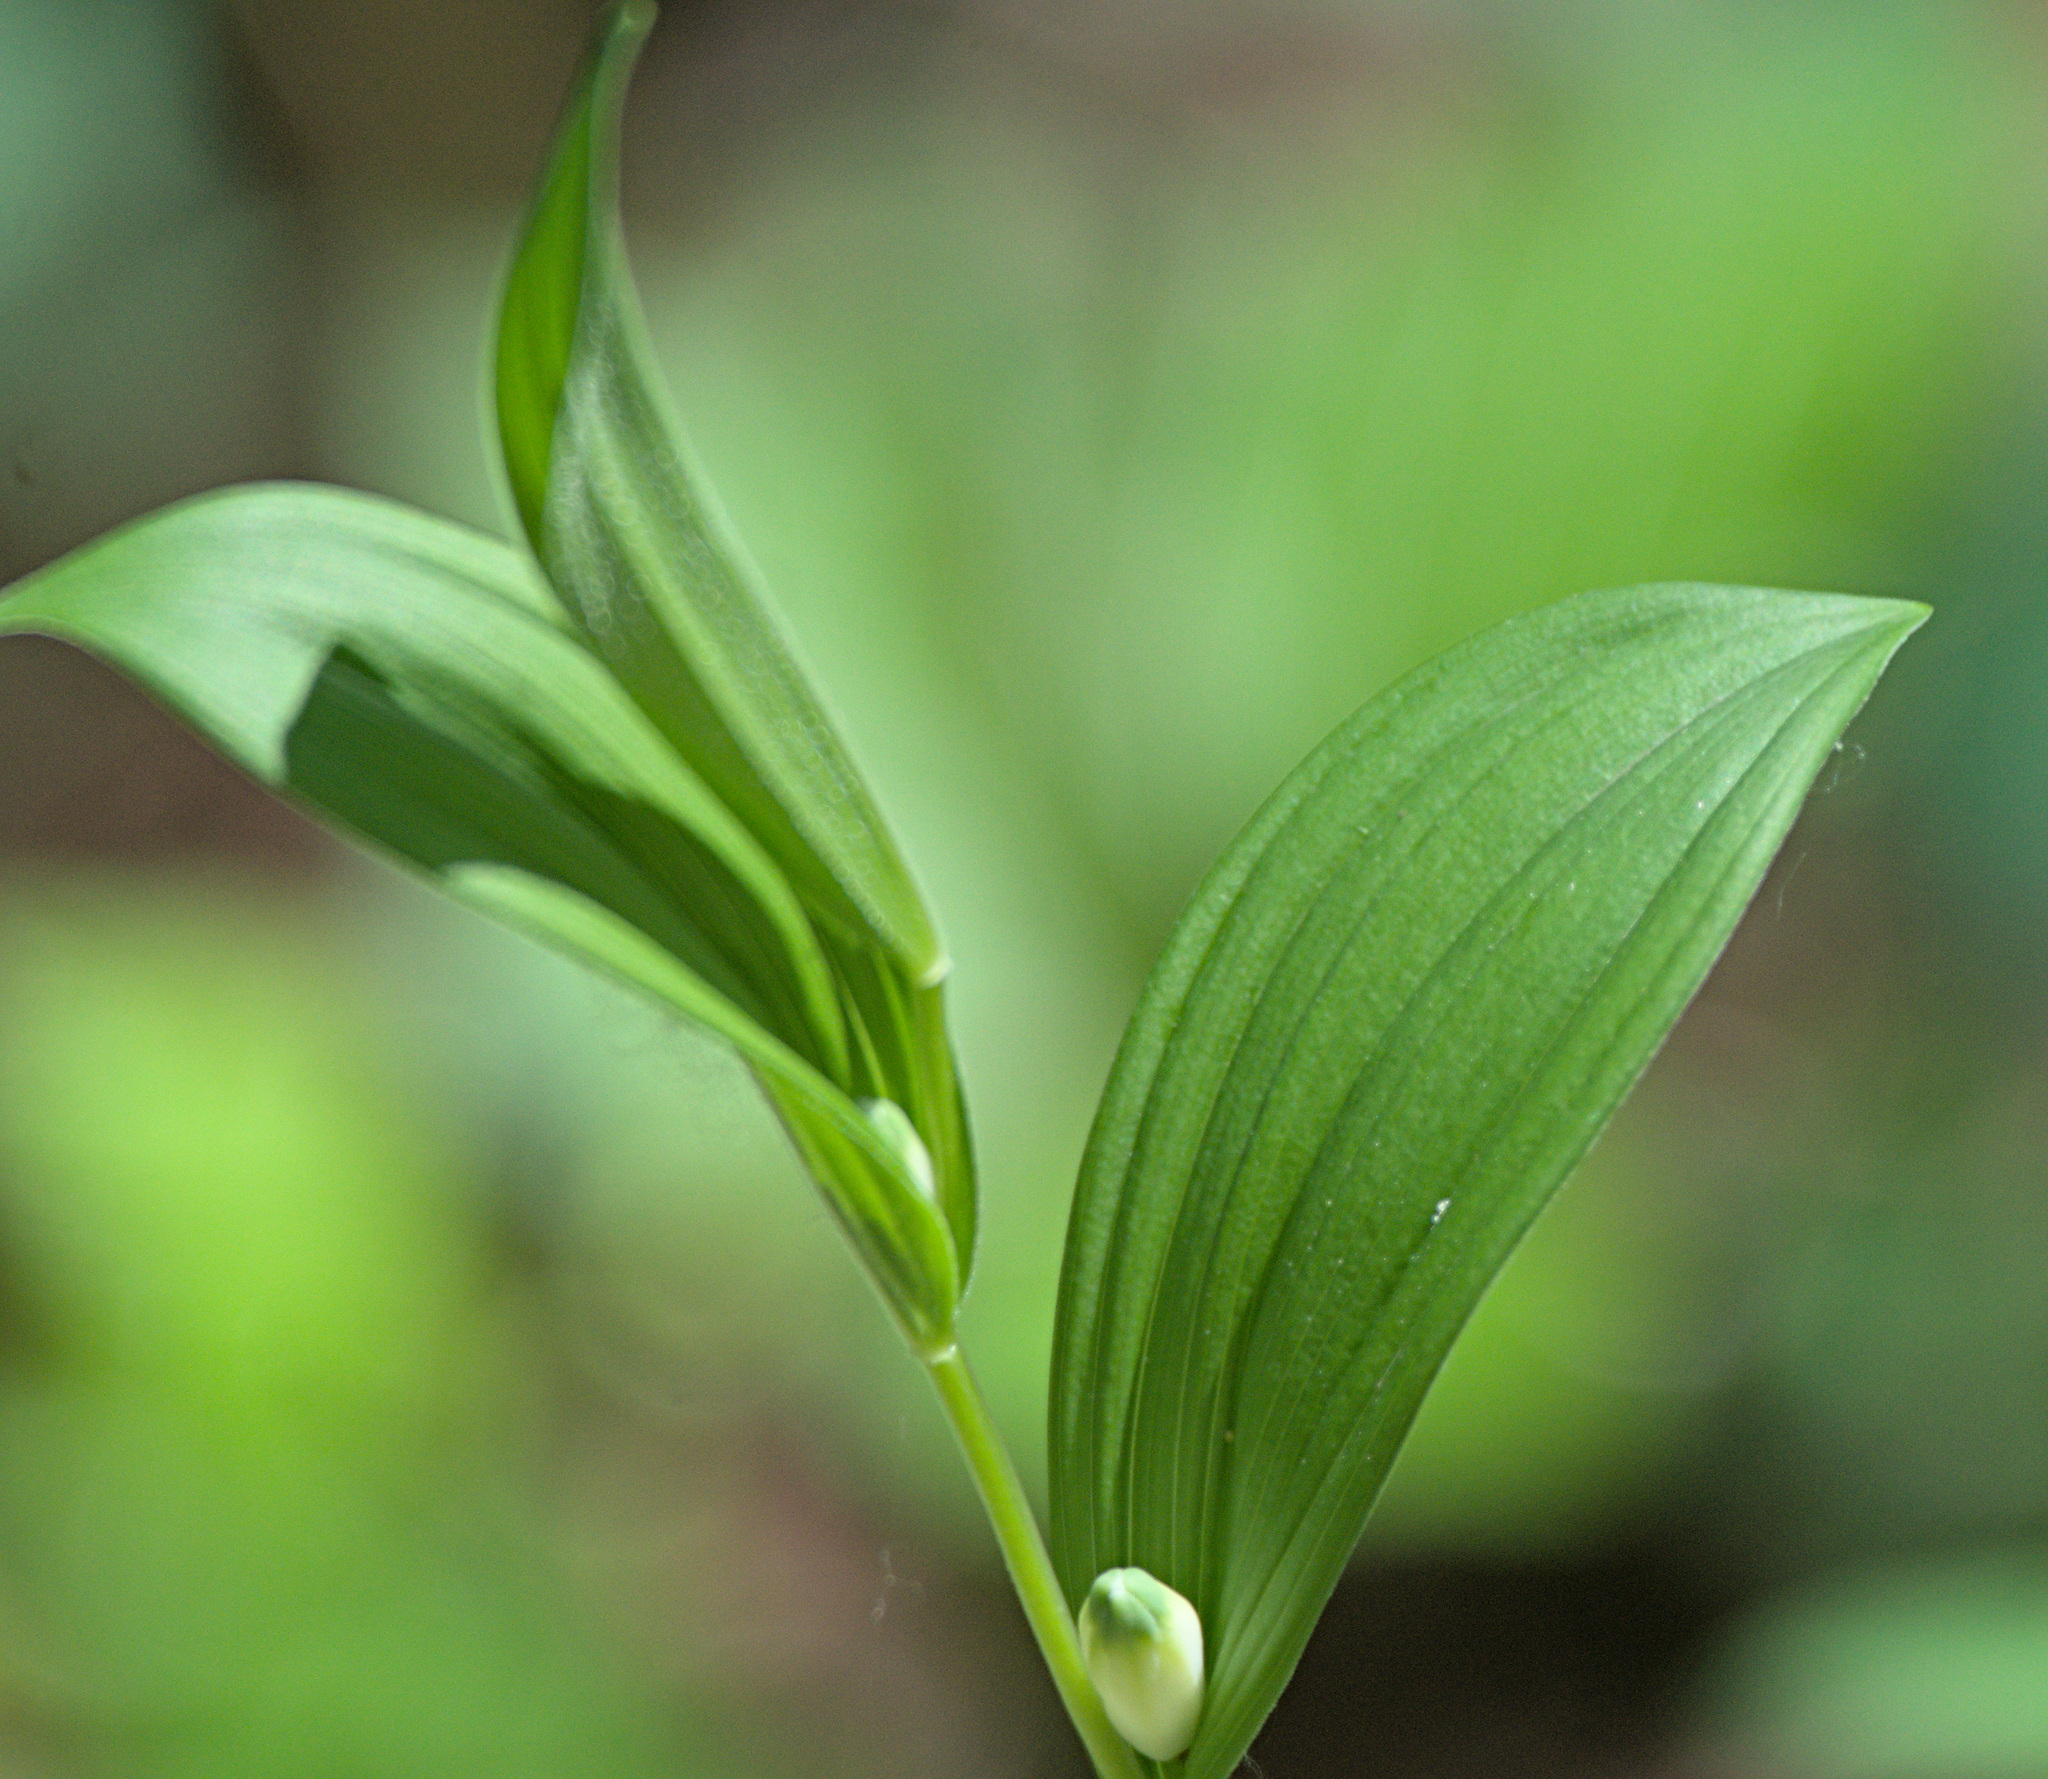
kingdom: Plantae
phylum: Tracheophyta
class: Liliopsida
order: Asparagales
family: Asparagaceae
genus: Polygonatum
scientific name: Polygonatum humile
